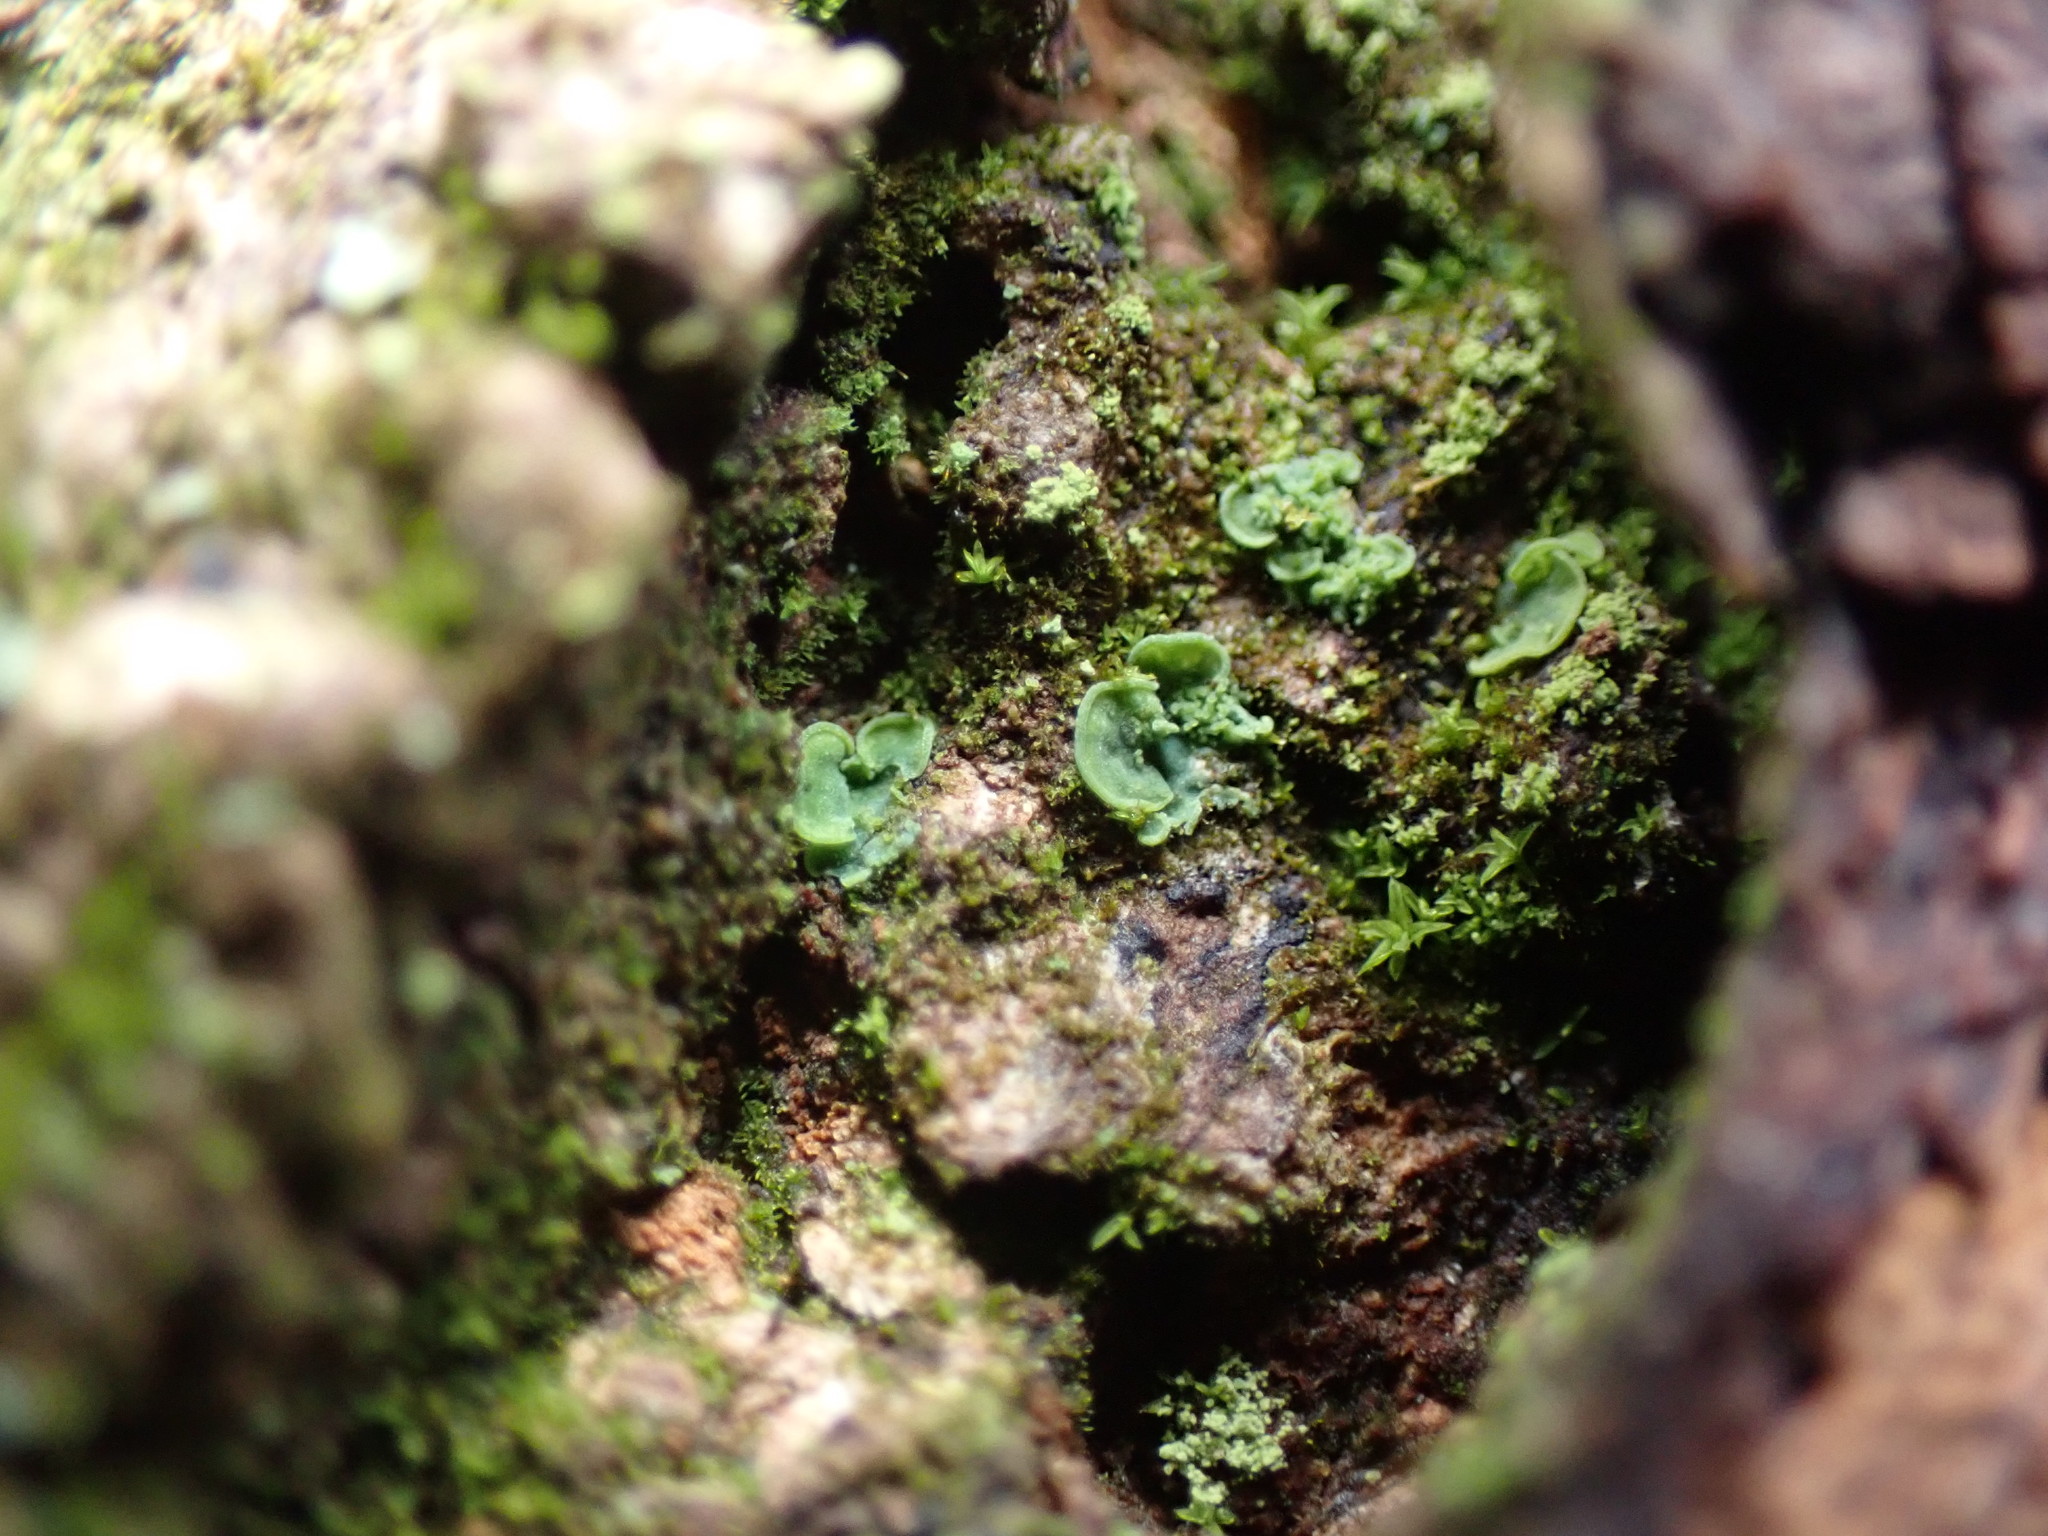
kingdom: Fungi
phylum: Ascomycota
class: Eurotiomycetes
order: Verrucariales
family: Verrucariaceae
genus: Normandina
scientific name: Normandina pulchella
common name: Elf ears lichen
